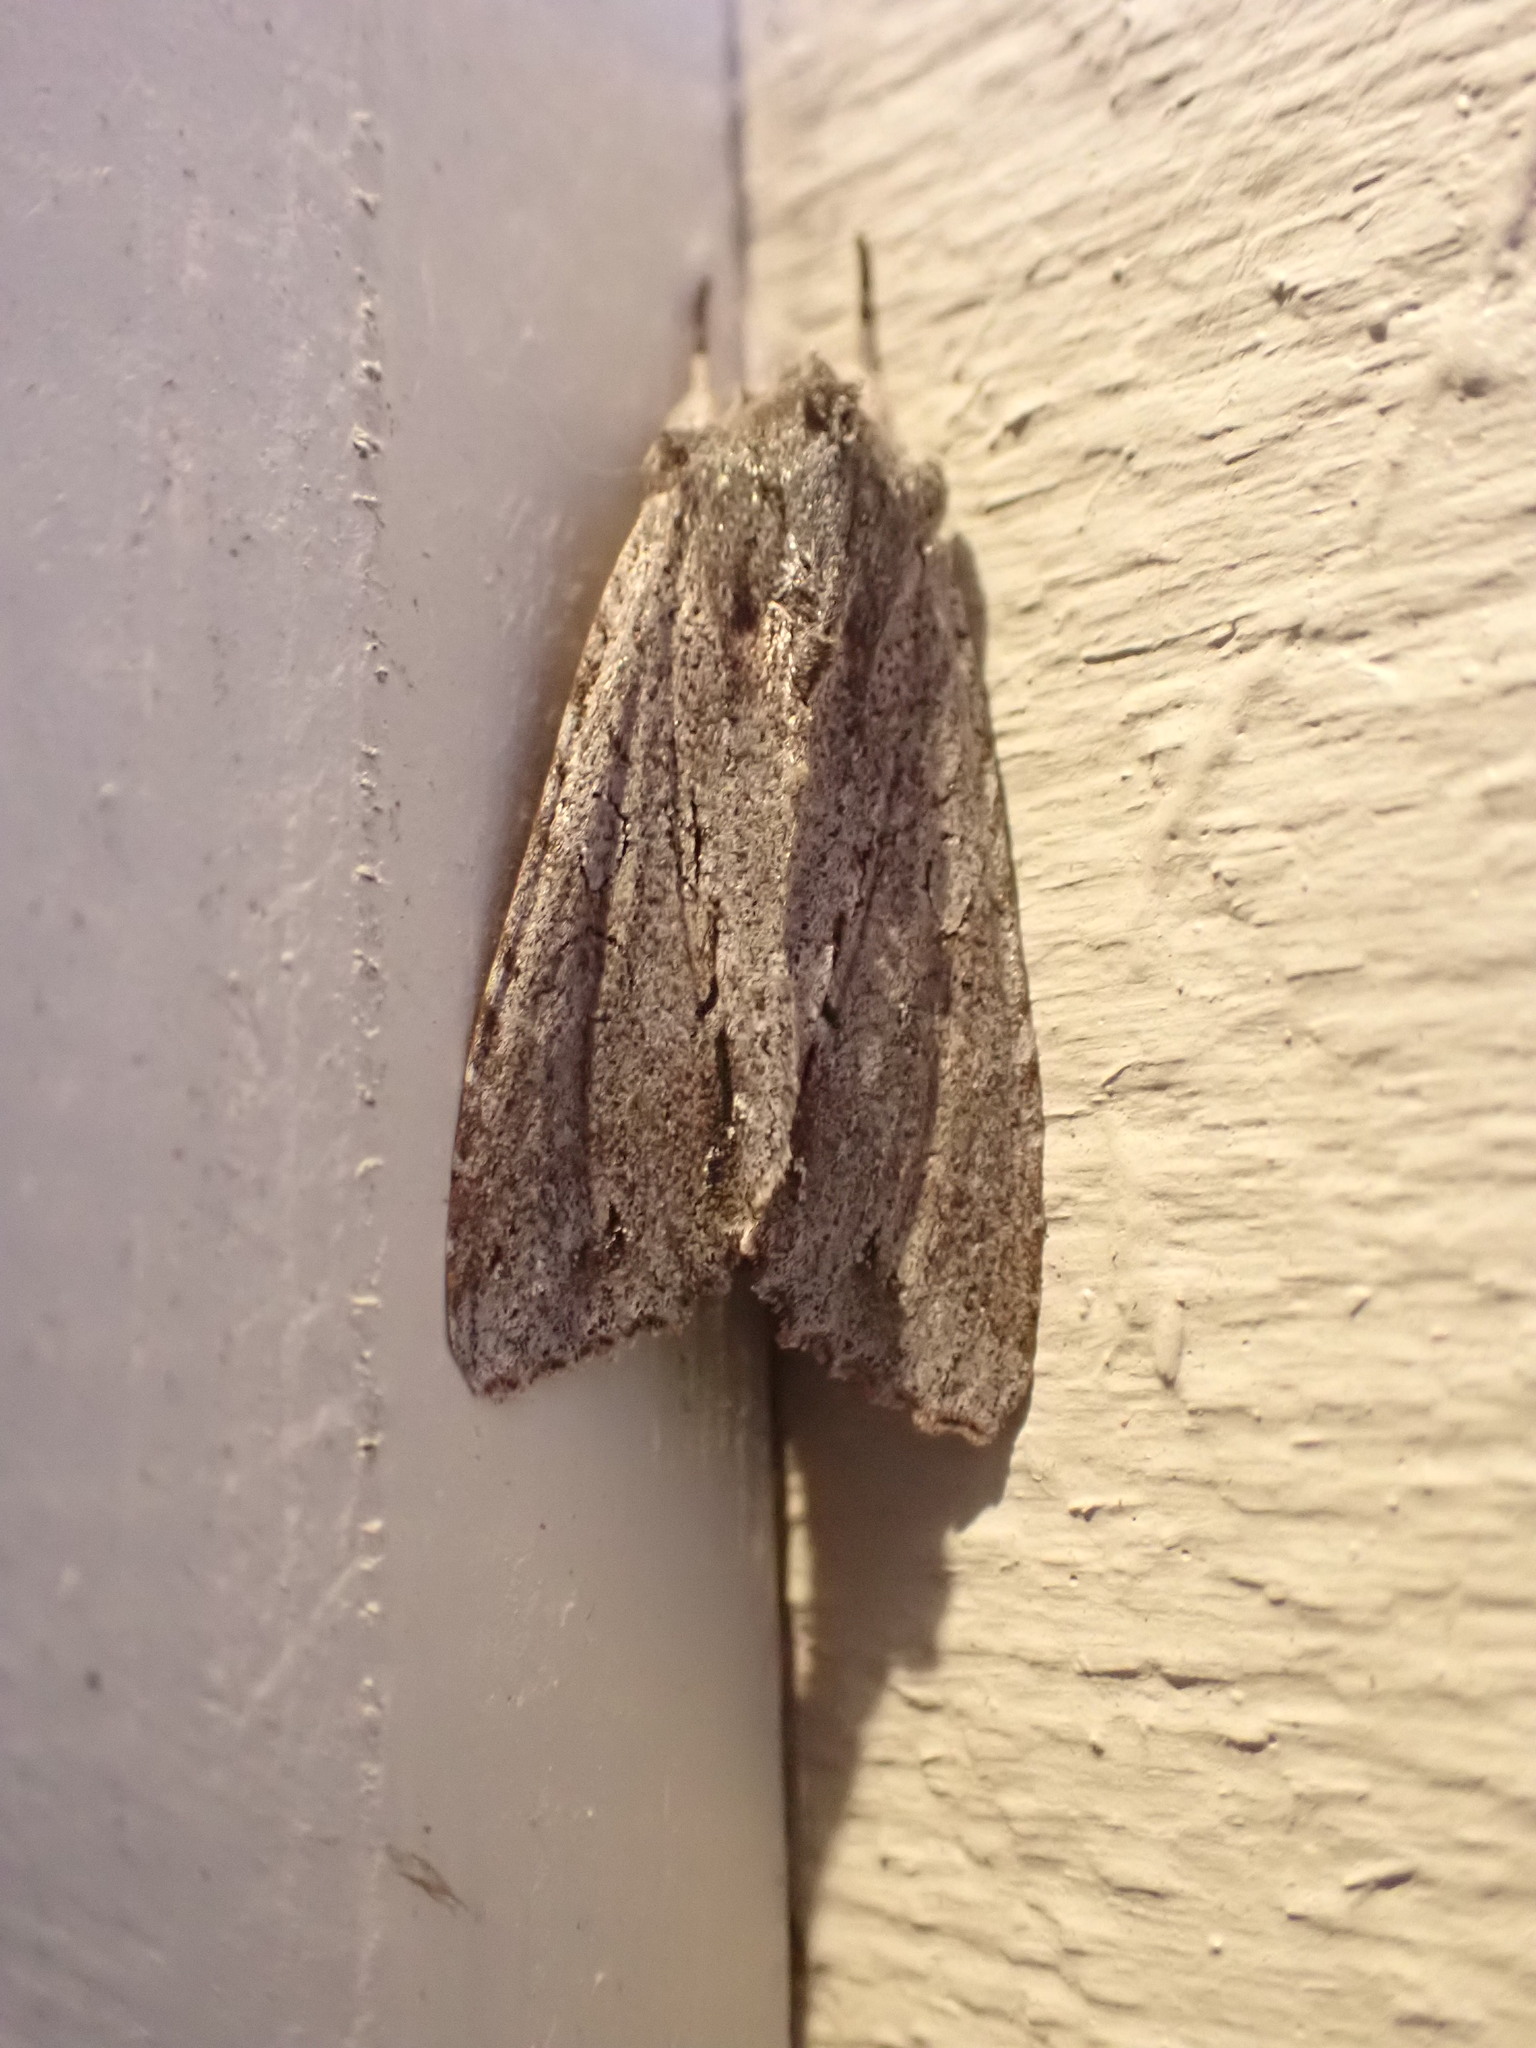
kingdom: Animalia
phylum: Arthropoda
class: Insecta
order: Lepidoptera
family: Noctuidae
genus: Ichneutica
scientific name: Ichneutica
